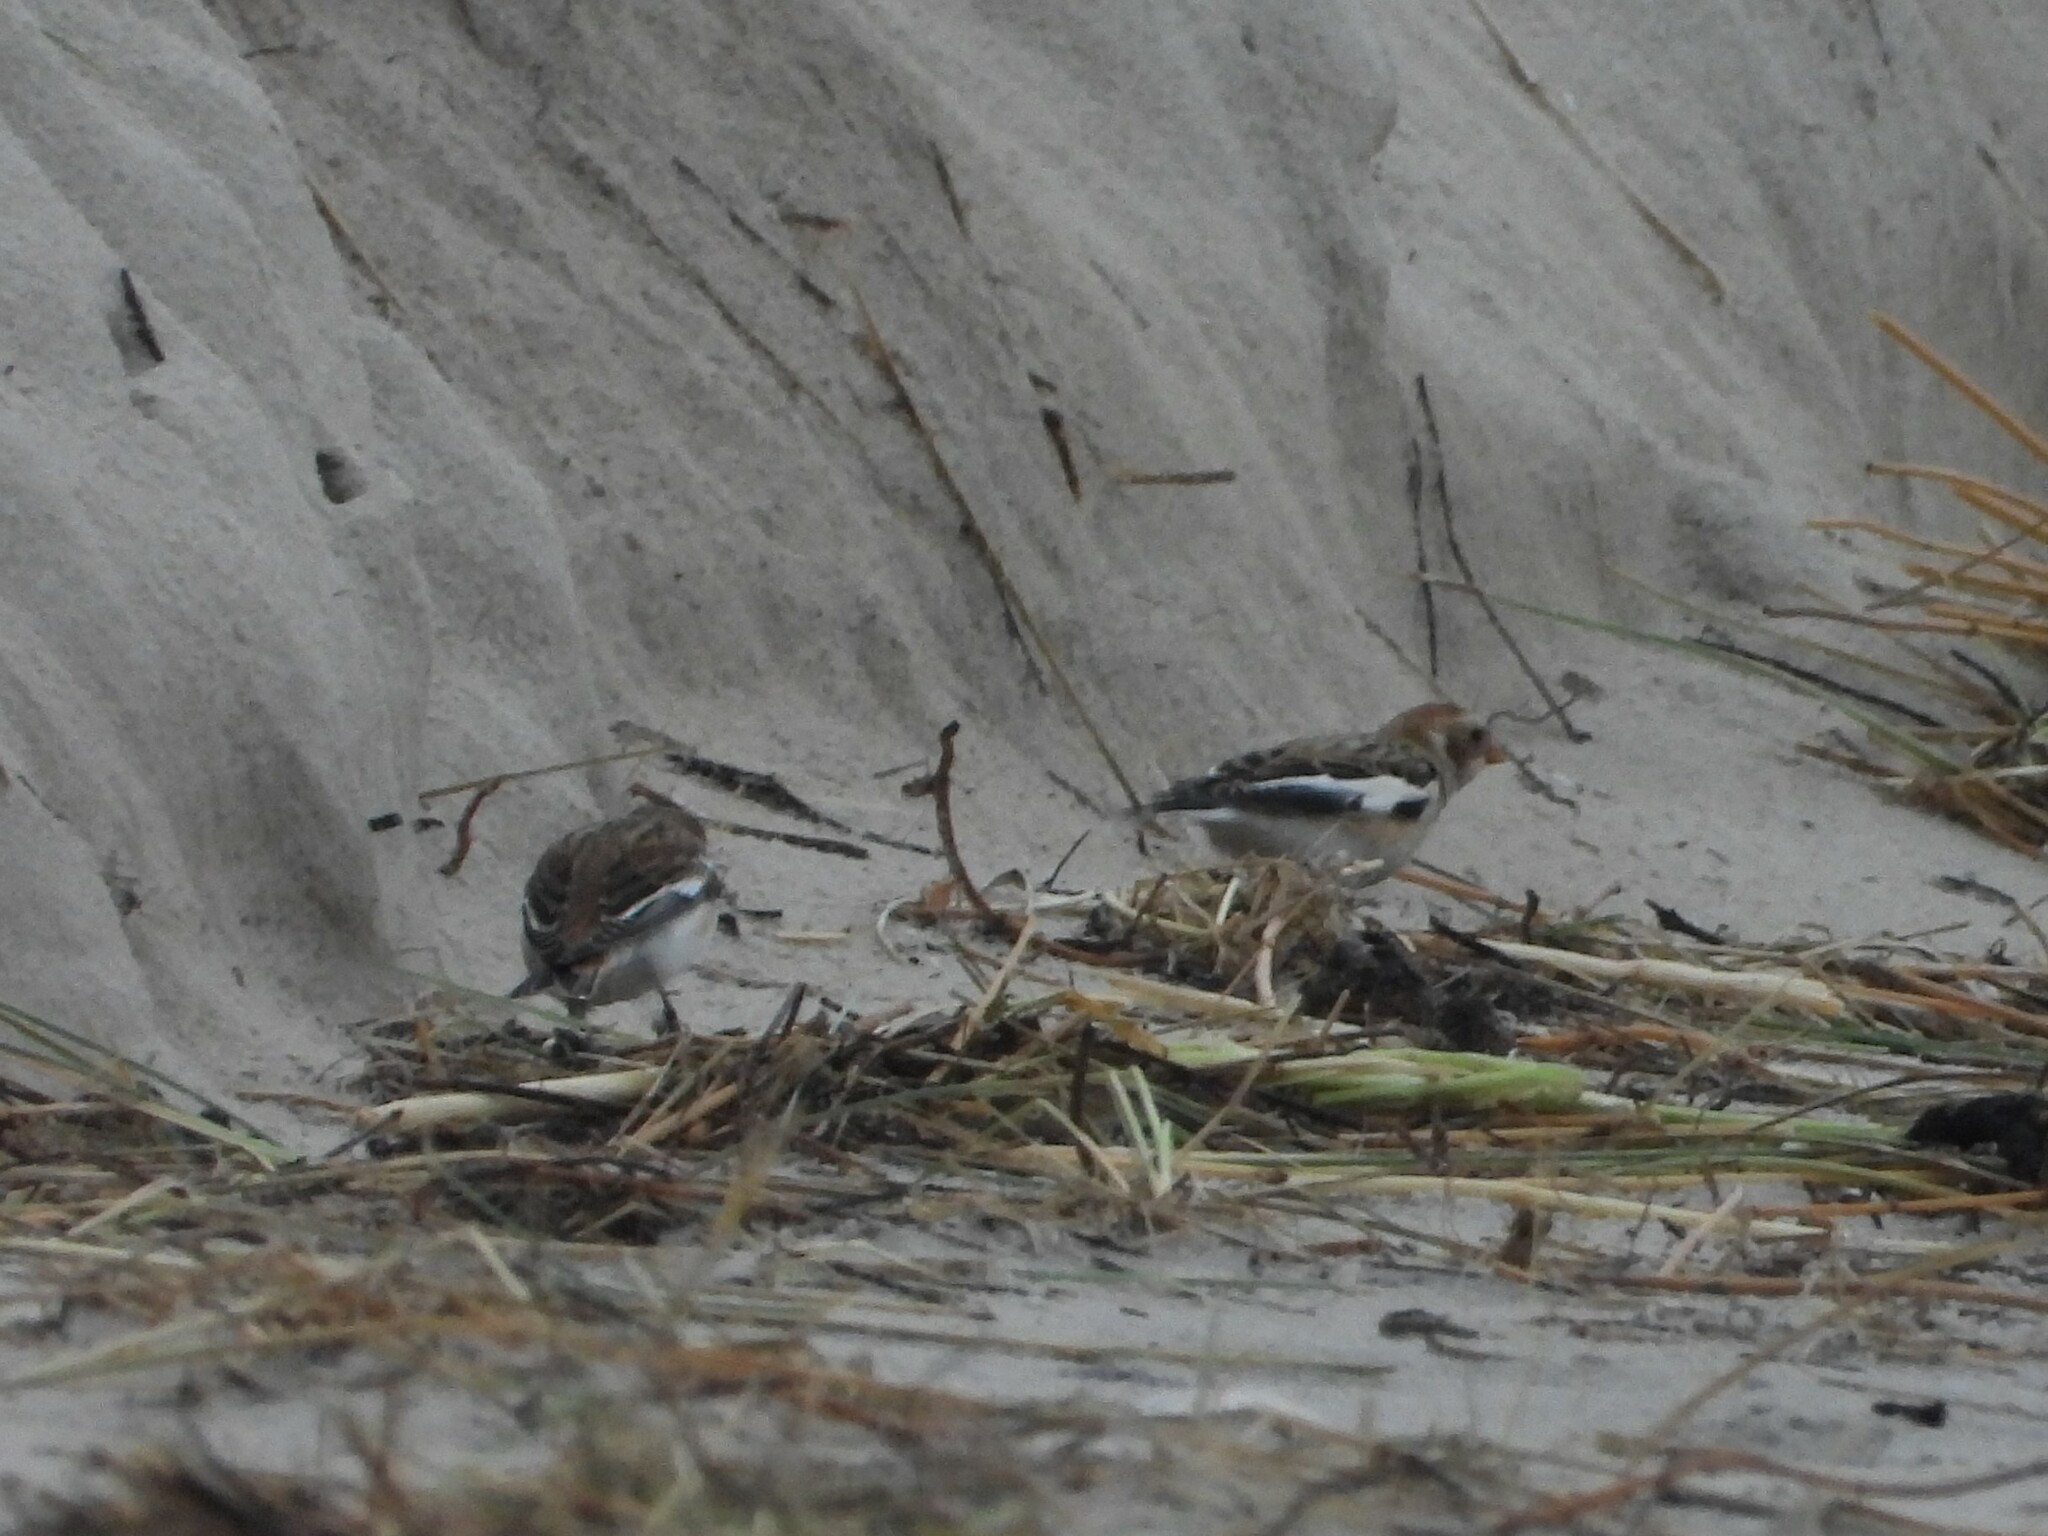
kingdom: Animalia
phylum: Chordata
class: Aves
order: Passeriformes
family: Calcariidae
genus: Plectrophenax
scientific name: Plectrophenax nivalis
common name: Snow bunting
